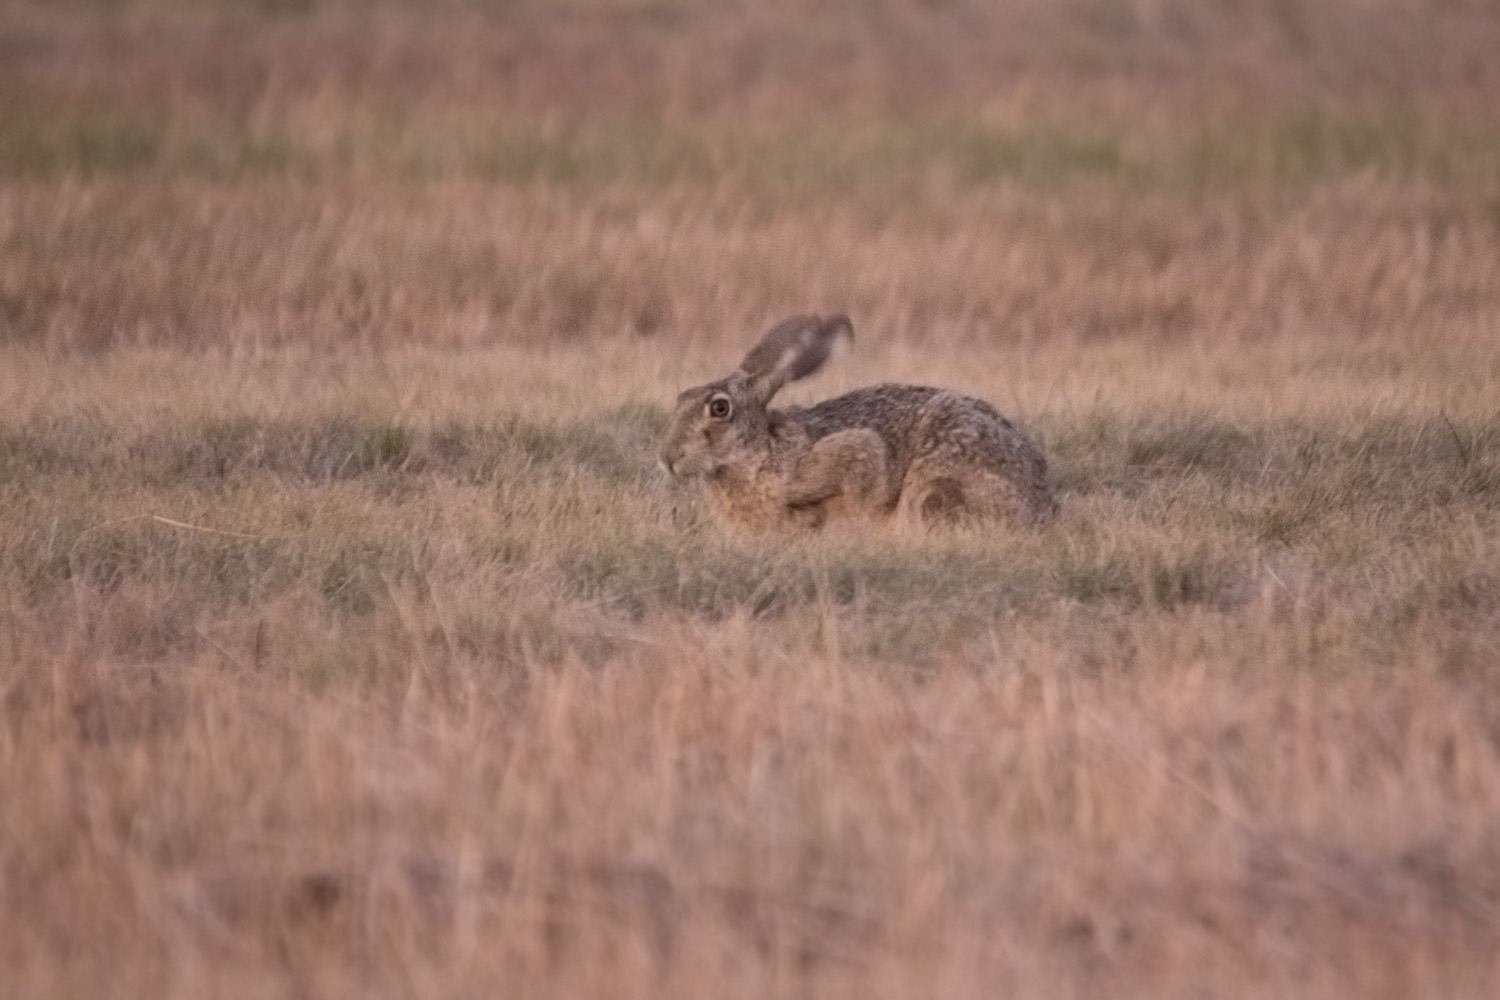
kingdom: Animalia
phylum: Chordata
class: Mammalia
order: Lagomorpha
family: Leporidae
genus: Lepus
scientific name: Lepus europaeus
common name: European hare
